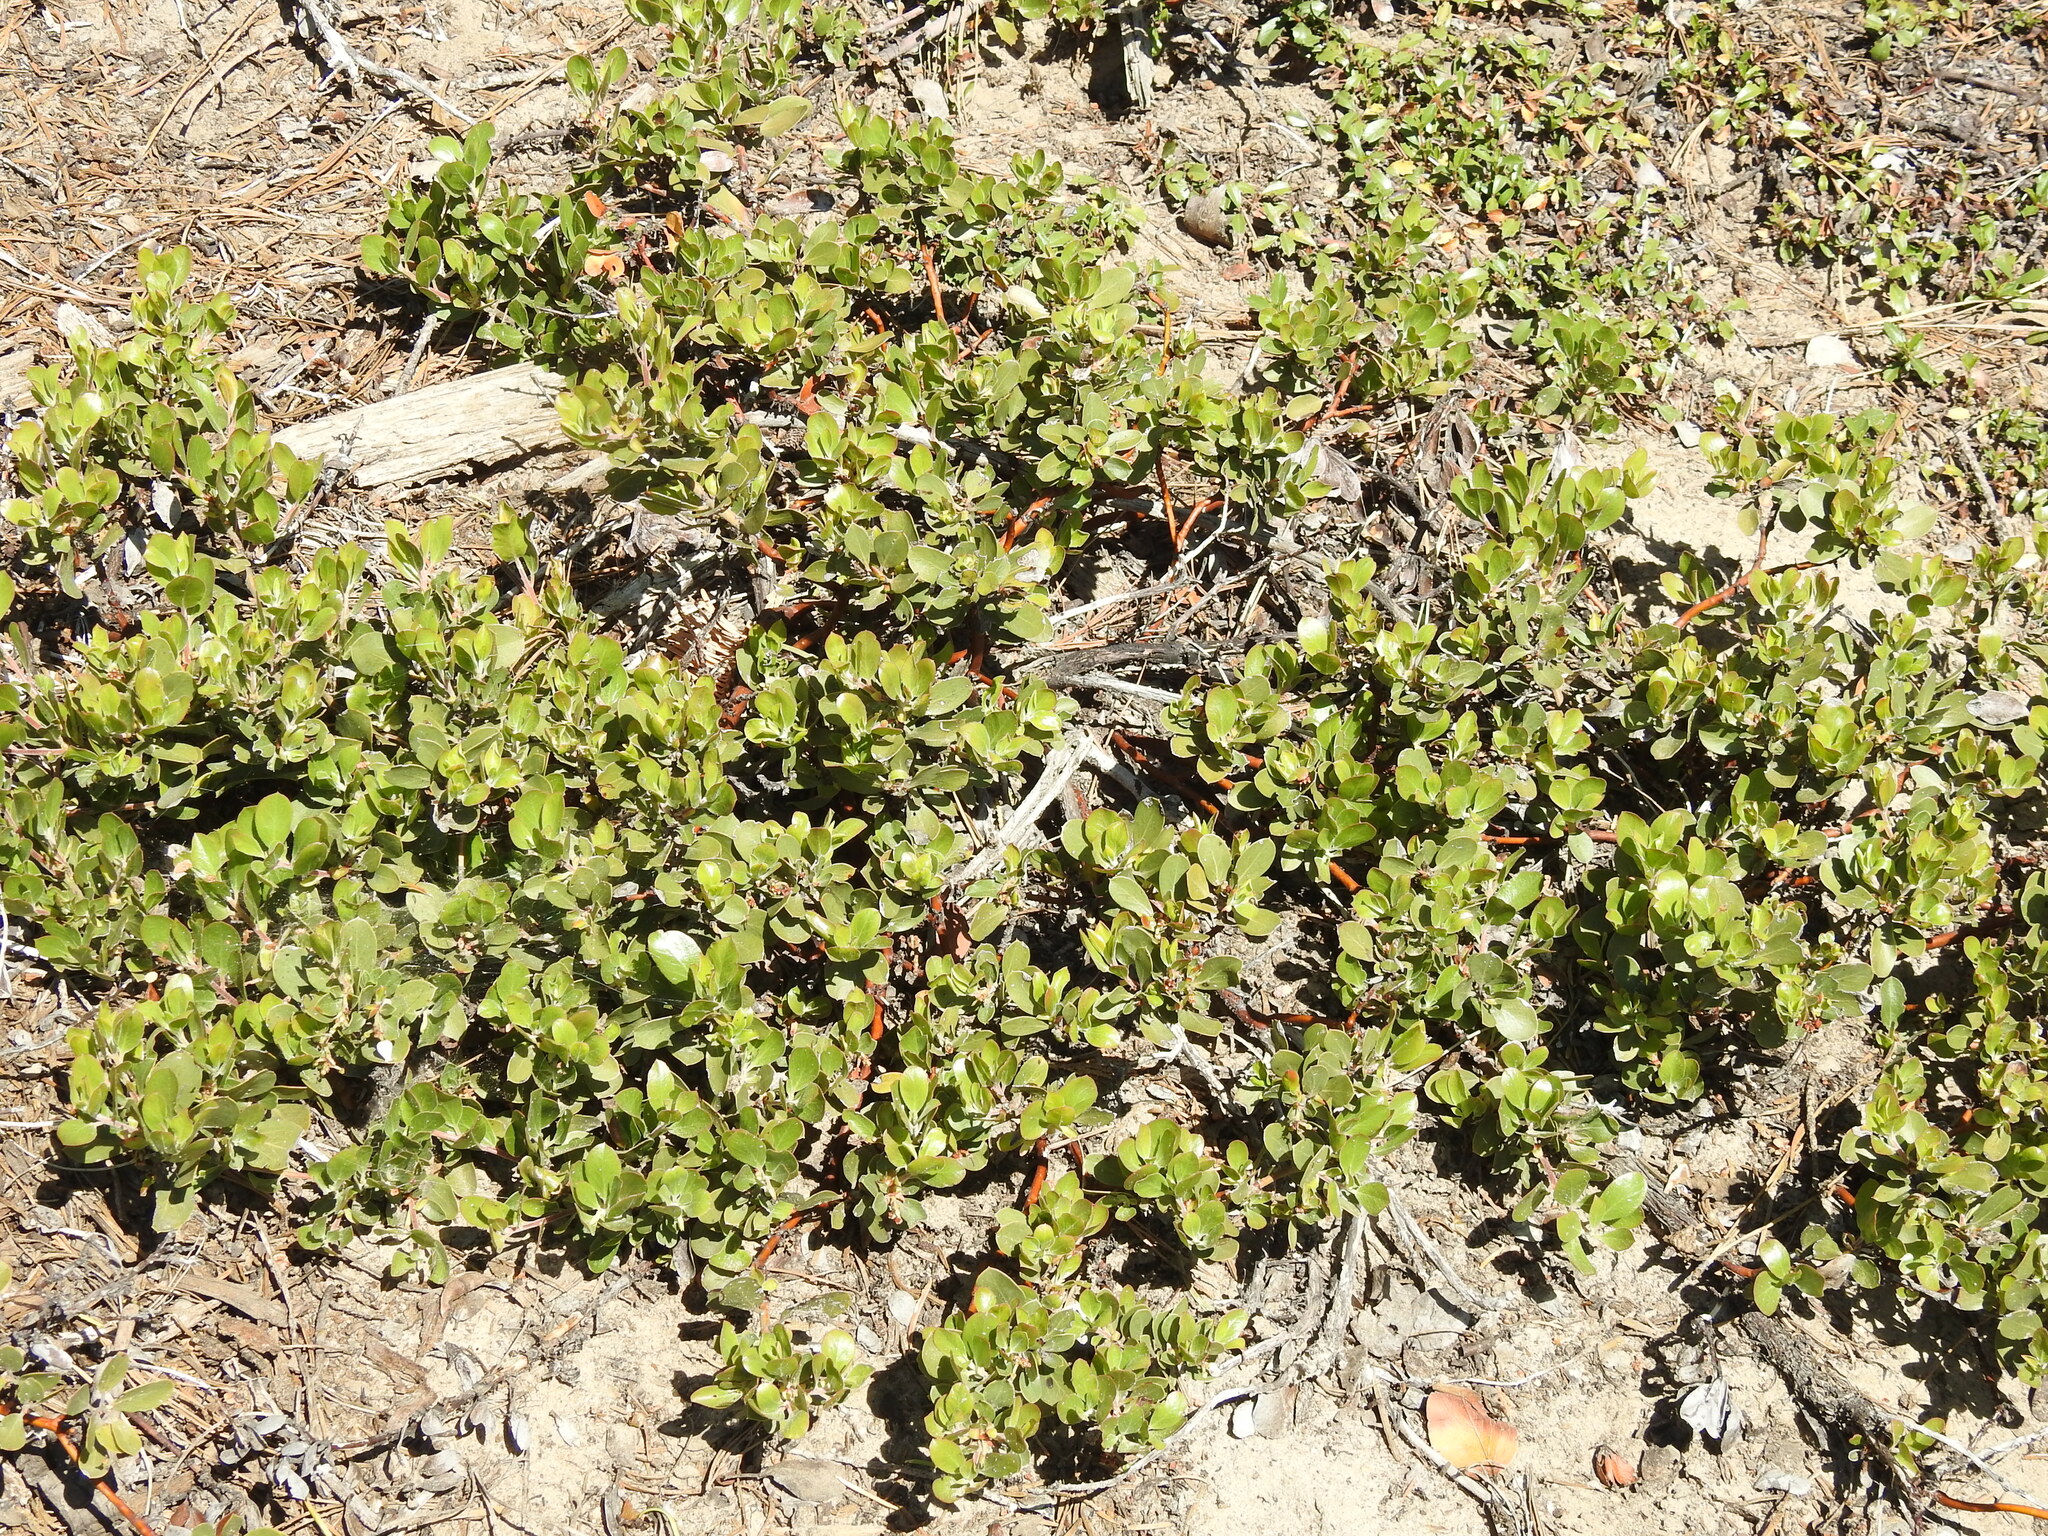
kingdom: Plantae
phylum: Tracheophyta
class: Magnoliopsida
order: Ericales
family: Ericaceae
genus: Arctostaphylos
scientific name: Arctostaphylos nevadensis
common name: Pinemat manzanita
